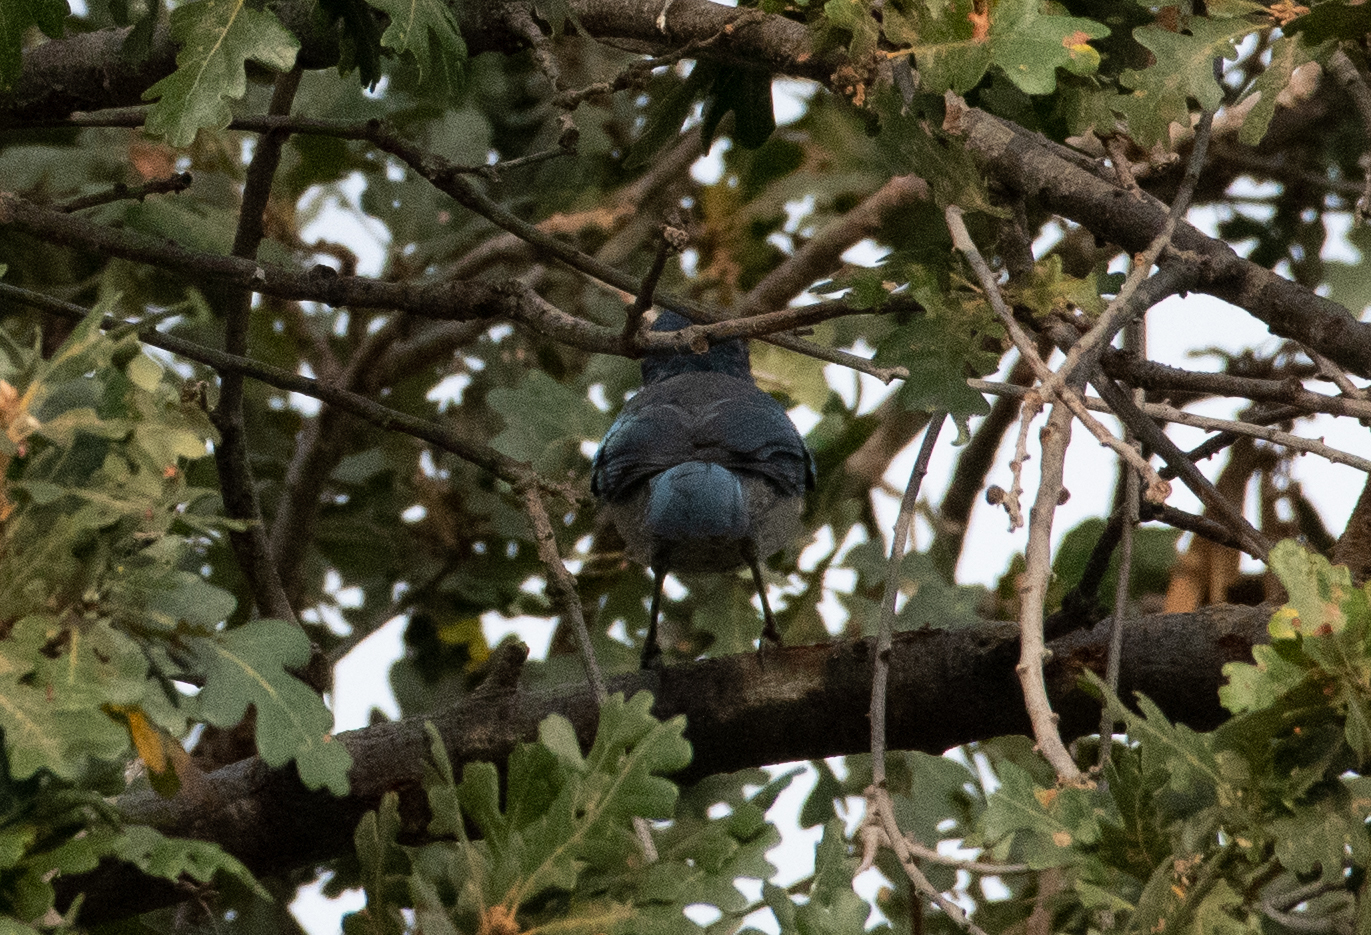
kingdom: Animalia
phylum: Chordata
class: Aves
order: Passeriformes
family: Corvidae
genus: Aphelocoma
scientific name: Aphelocoma californica
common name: California scrub-jay
